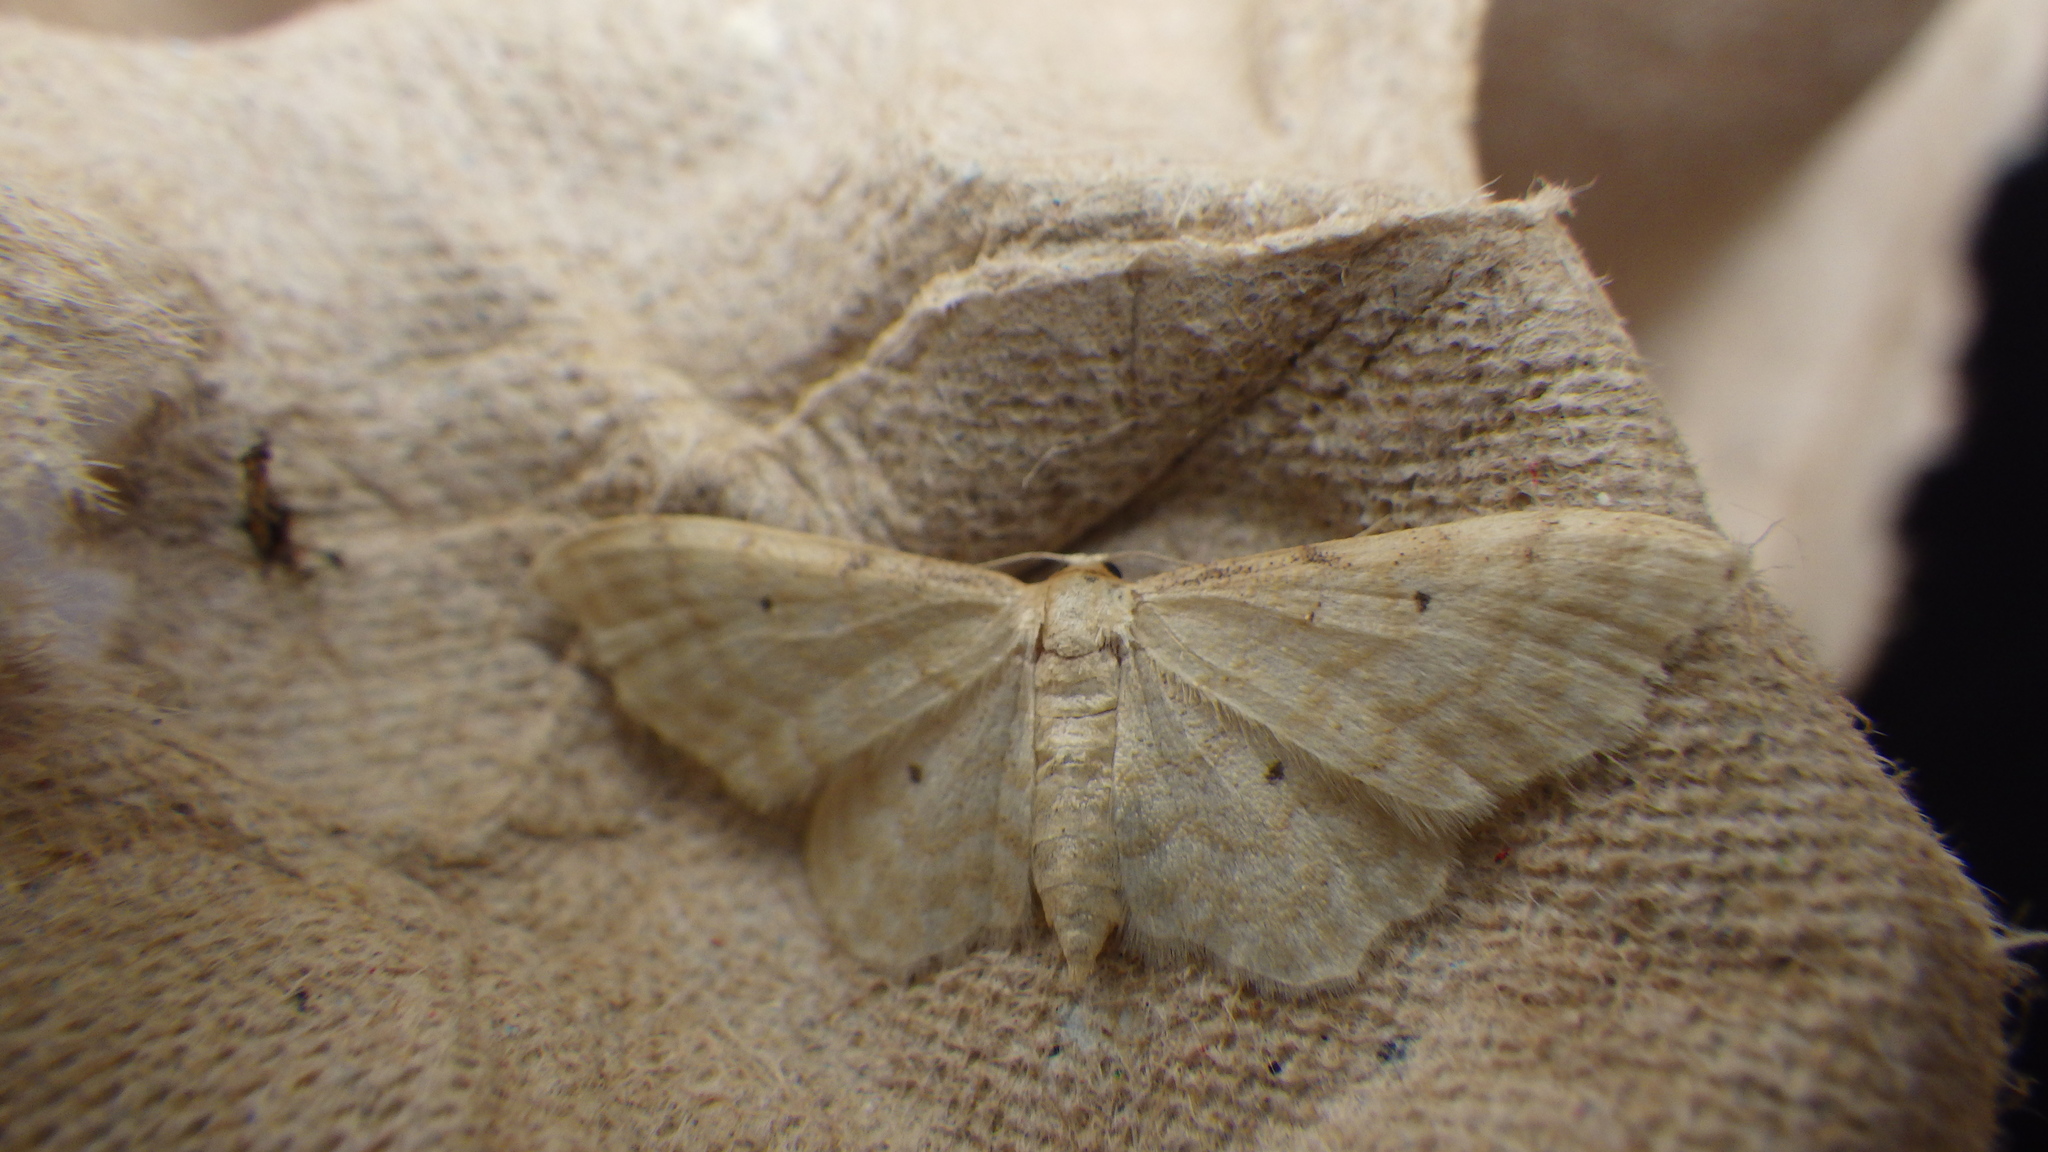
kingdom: Animalia
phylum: Arthropoda
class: Insecta
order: Lepidoptera
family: Geometridae
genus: Idaea
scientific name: Idaea fuscovenosa
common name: Dwarf cream wave
